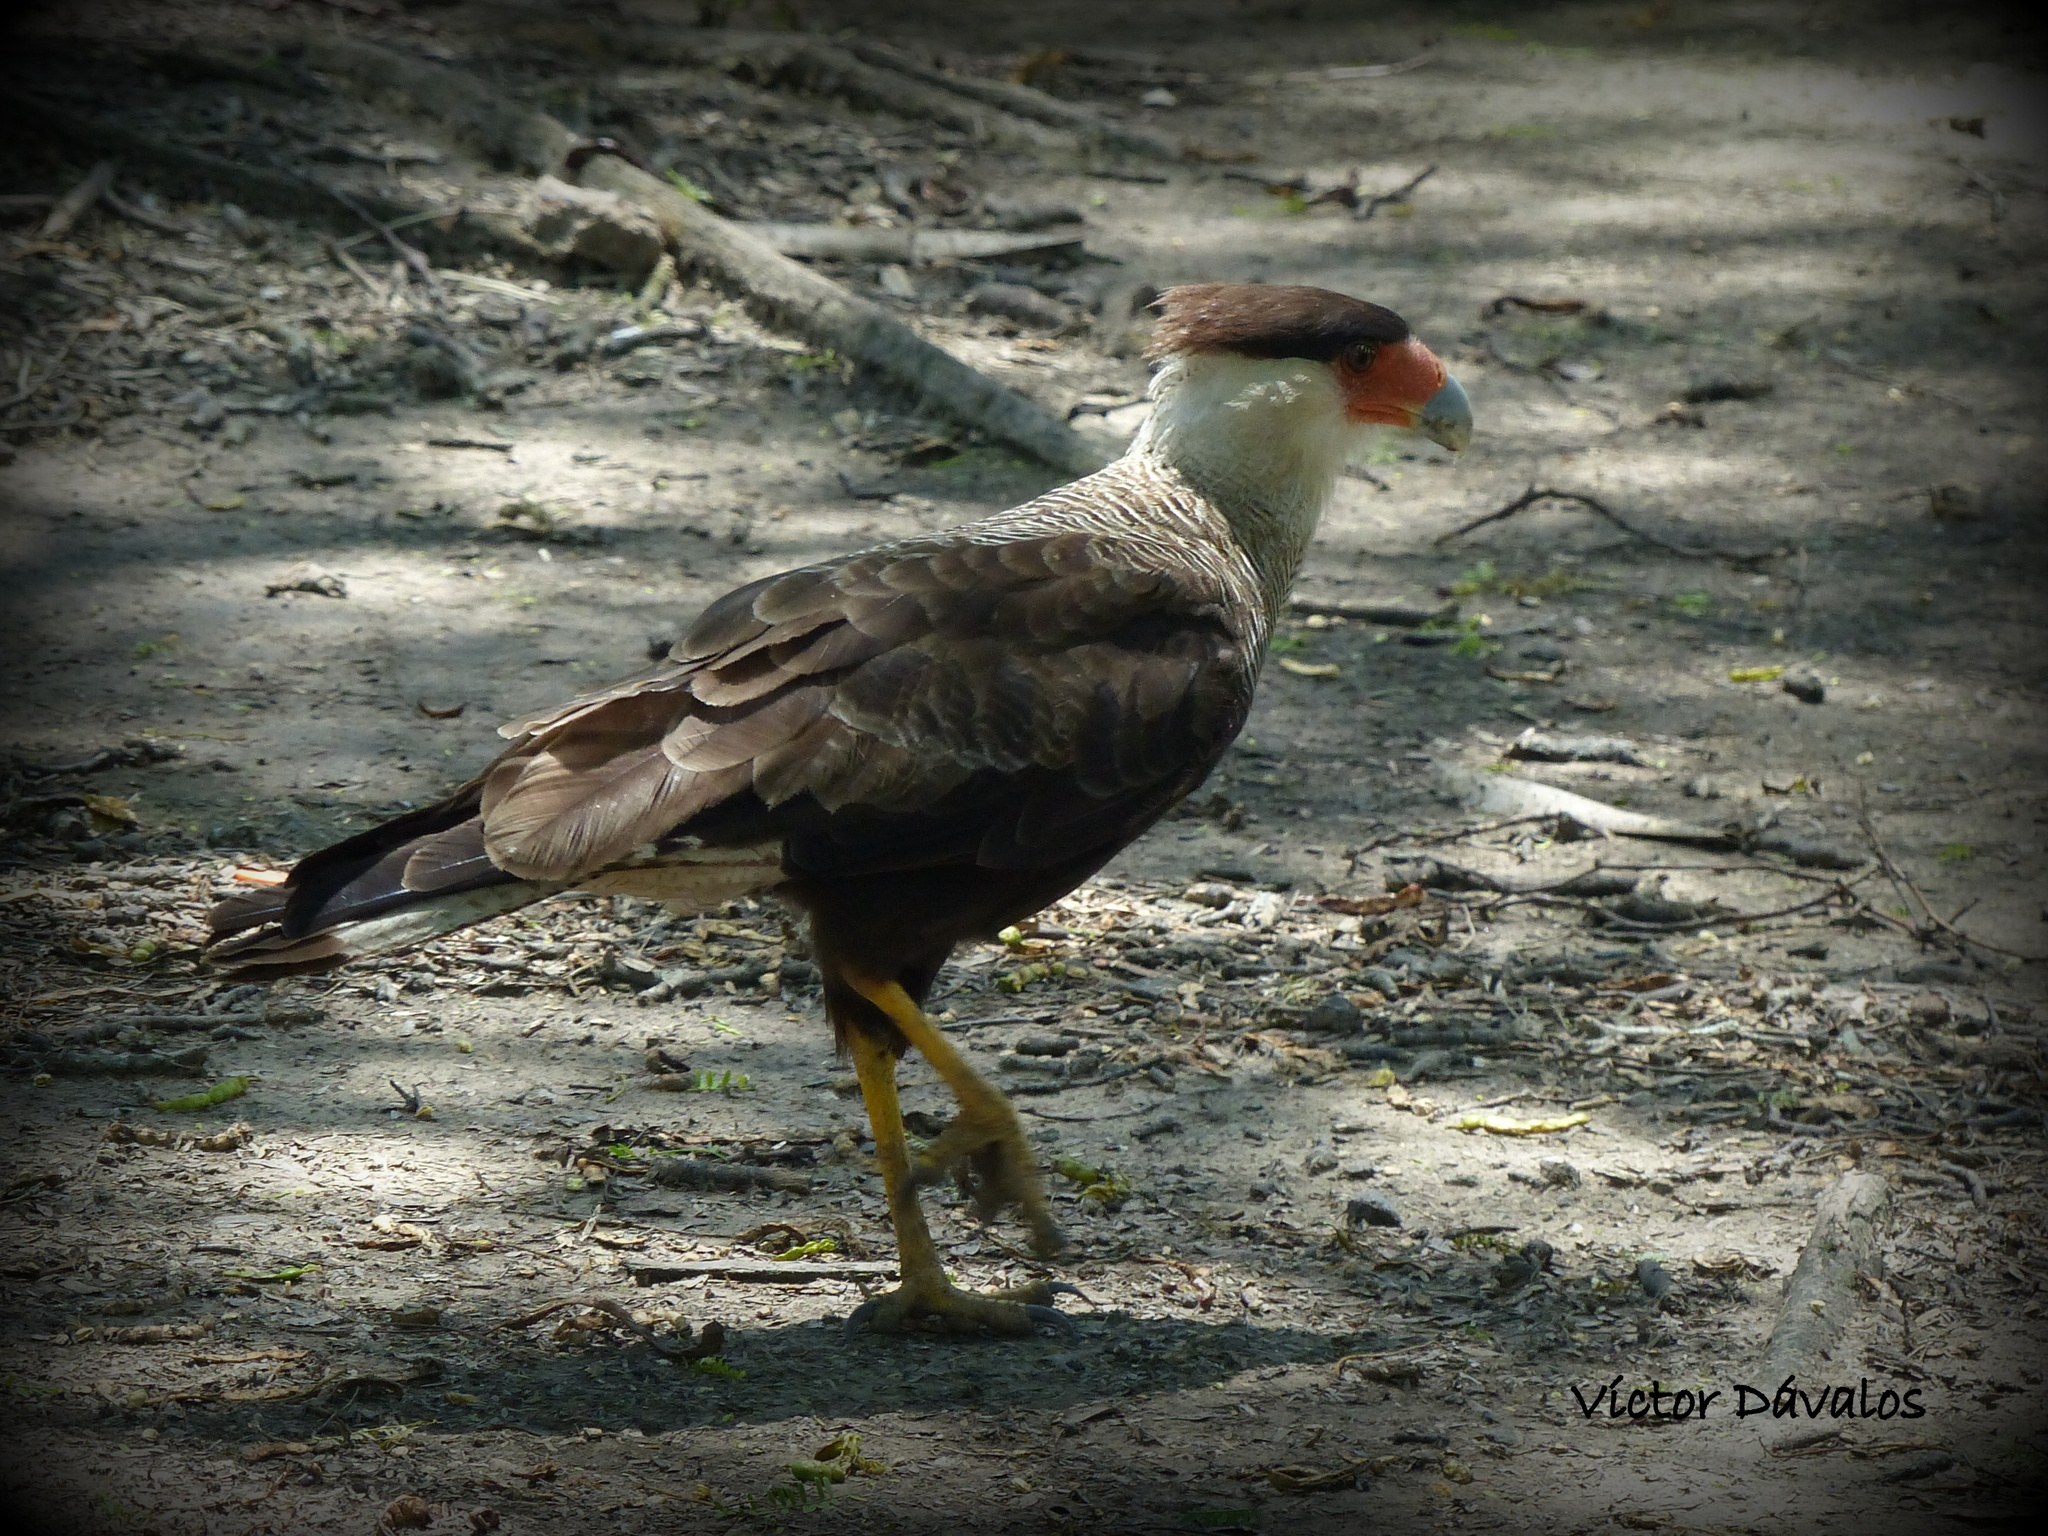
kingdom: Animalia
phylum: Chordata
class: Aves
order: Falconiformes
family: Falconidae
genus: Caracara
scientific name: Caracara plancus
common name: Southern caracara
